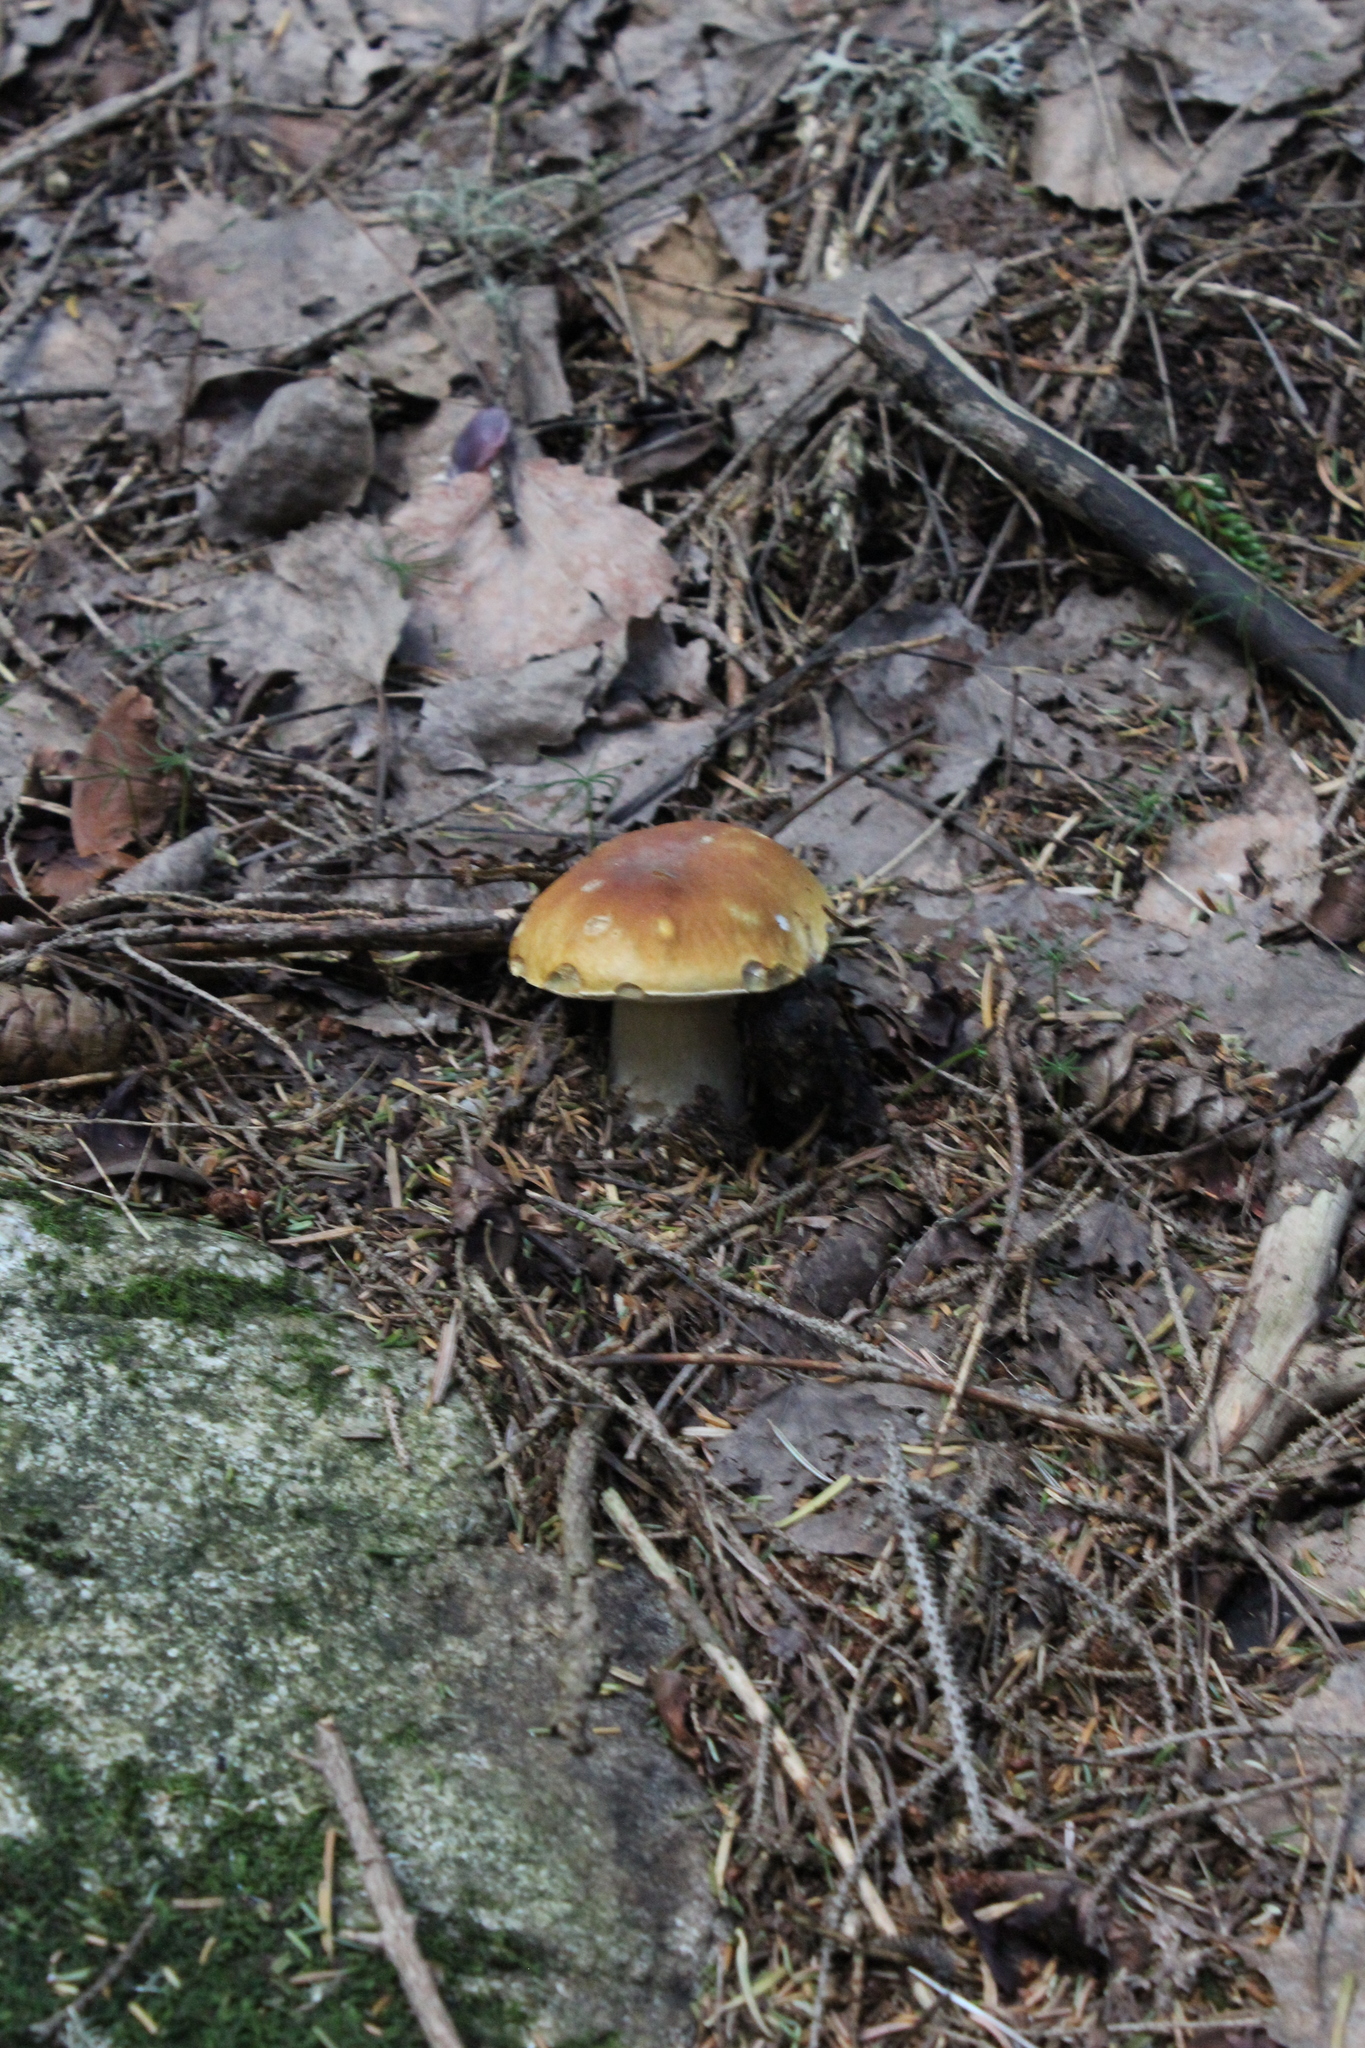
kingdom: Fungi
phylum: Basidiomycota
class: Agaricomycetes
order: Boletales
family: Boletaceae
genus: Boletus
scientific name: Boletus edulis
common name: Cep
